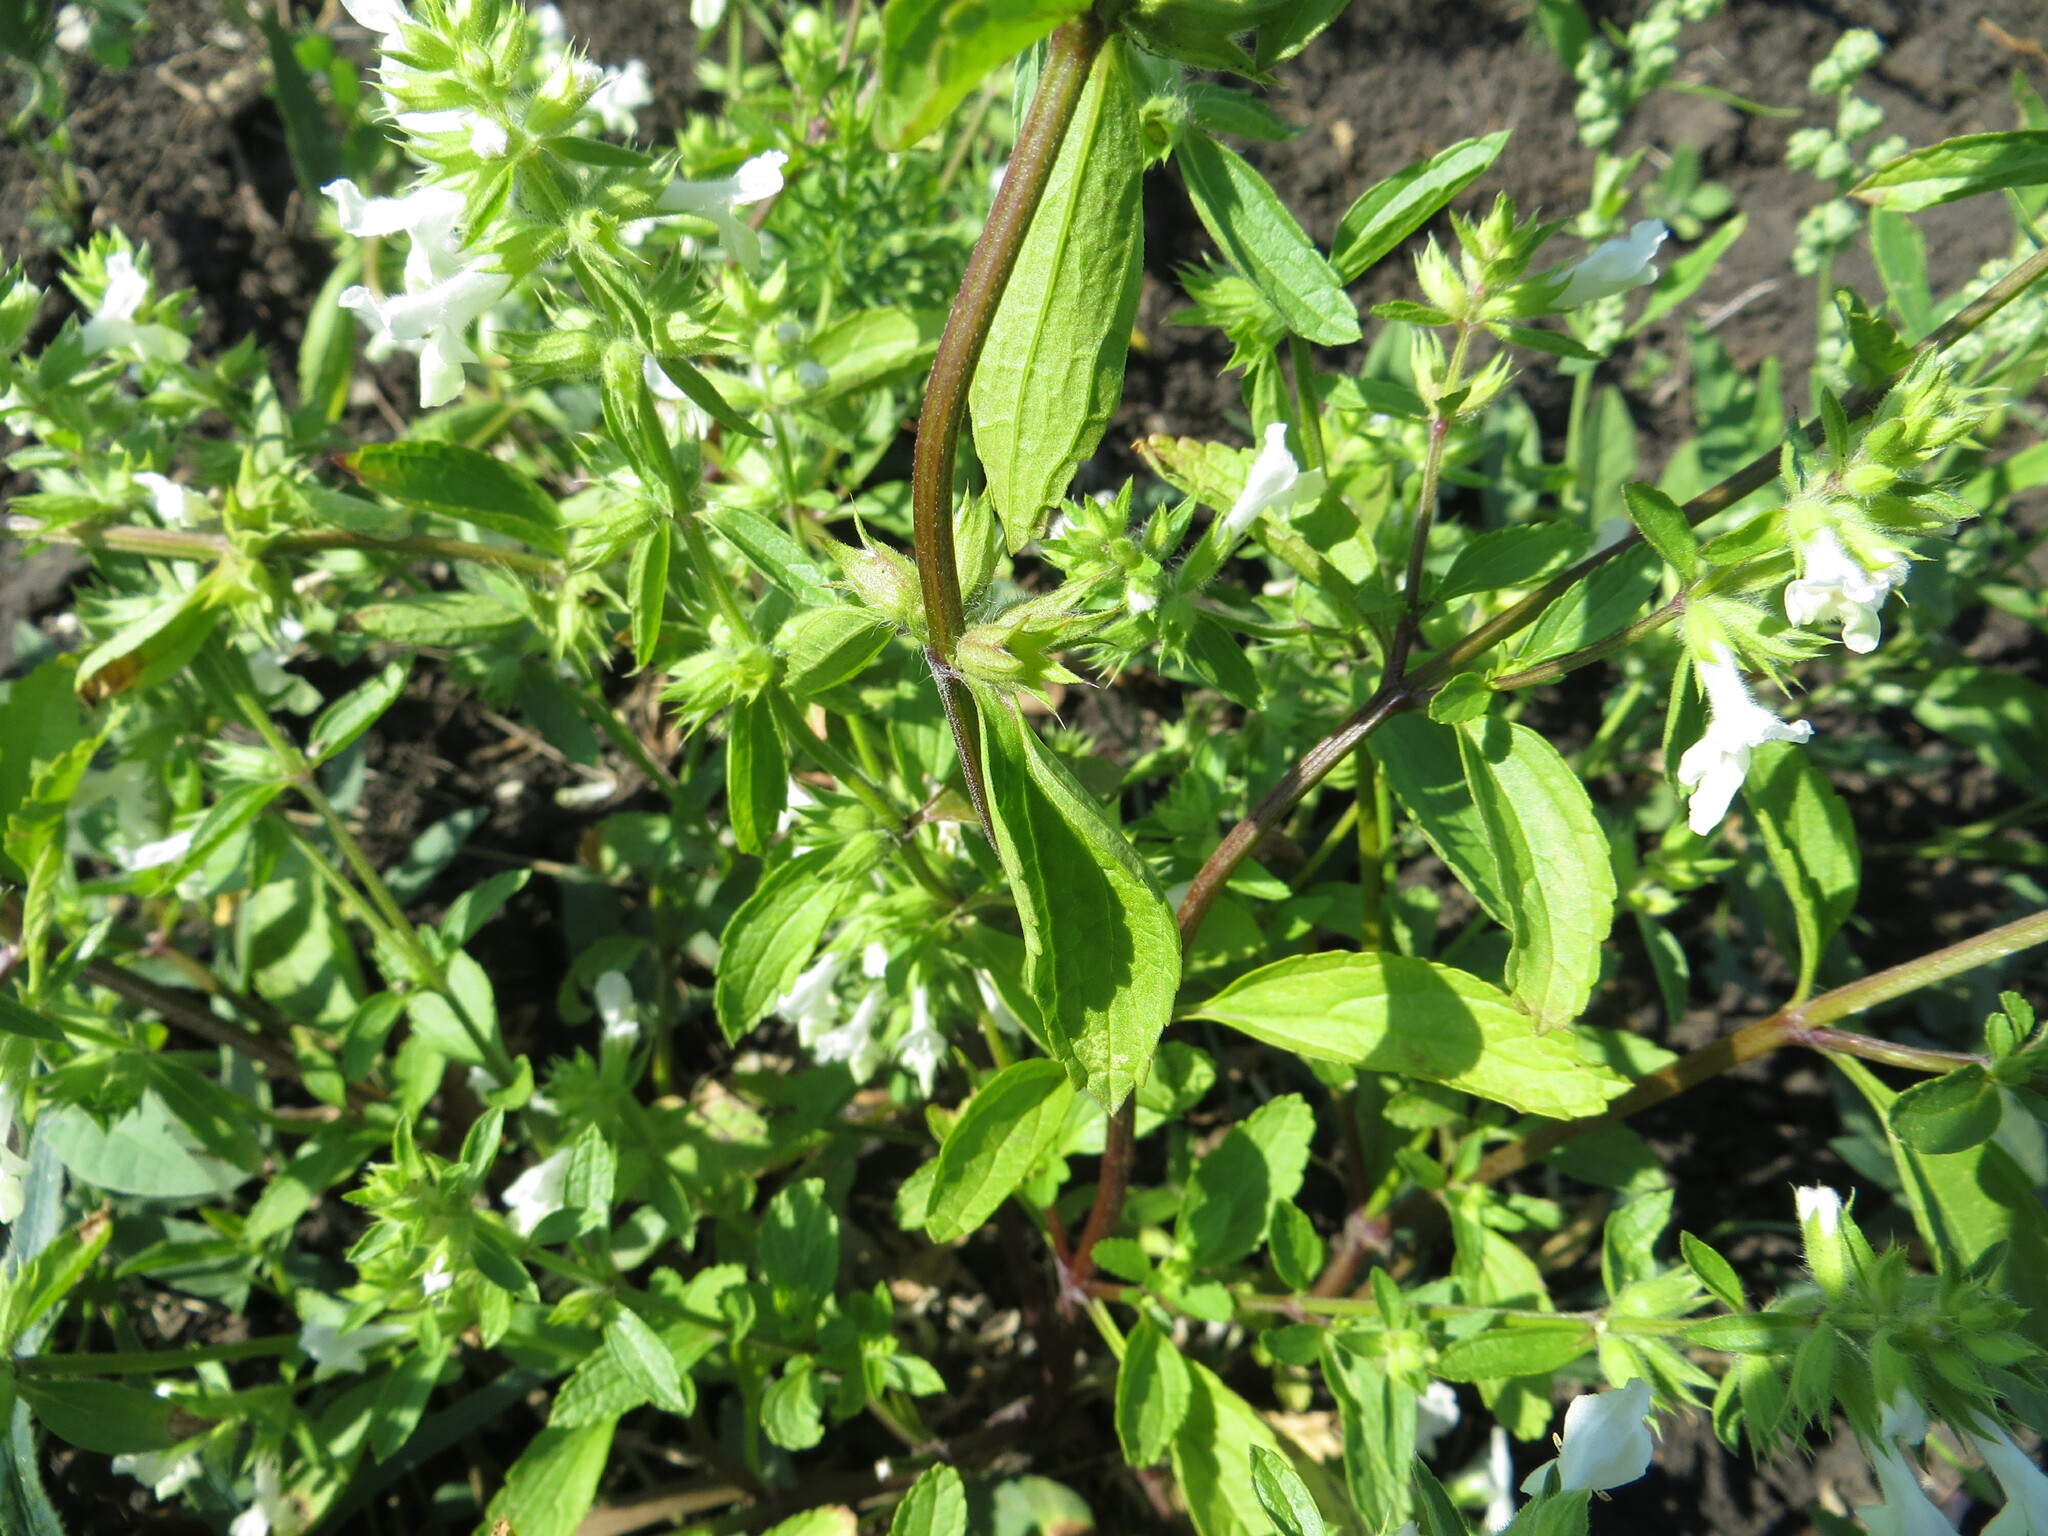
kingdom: Plantae
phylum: Tracheophyta
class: Magnoliopsida
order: Lamiales
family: Lamiaceae
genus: Stachys
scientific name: Stachys annua
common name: Annual yellow-woundwort
